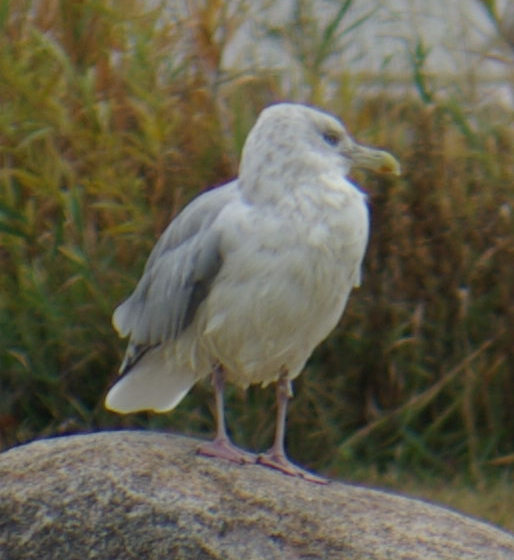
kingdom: Animalia
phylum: Chordata
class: Aves
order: Charadriiformes
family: Laridae
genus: Larus
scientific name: Larus argentatus
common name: Herring gull
